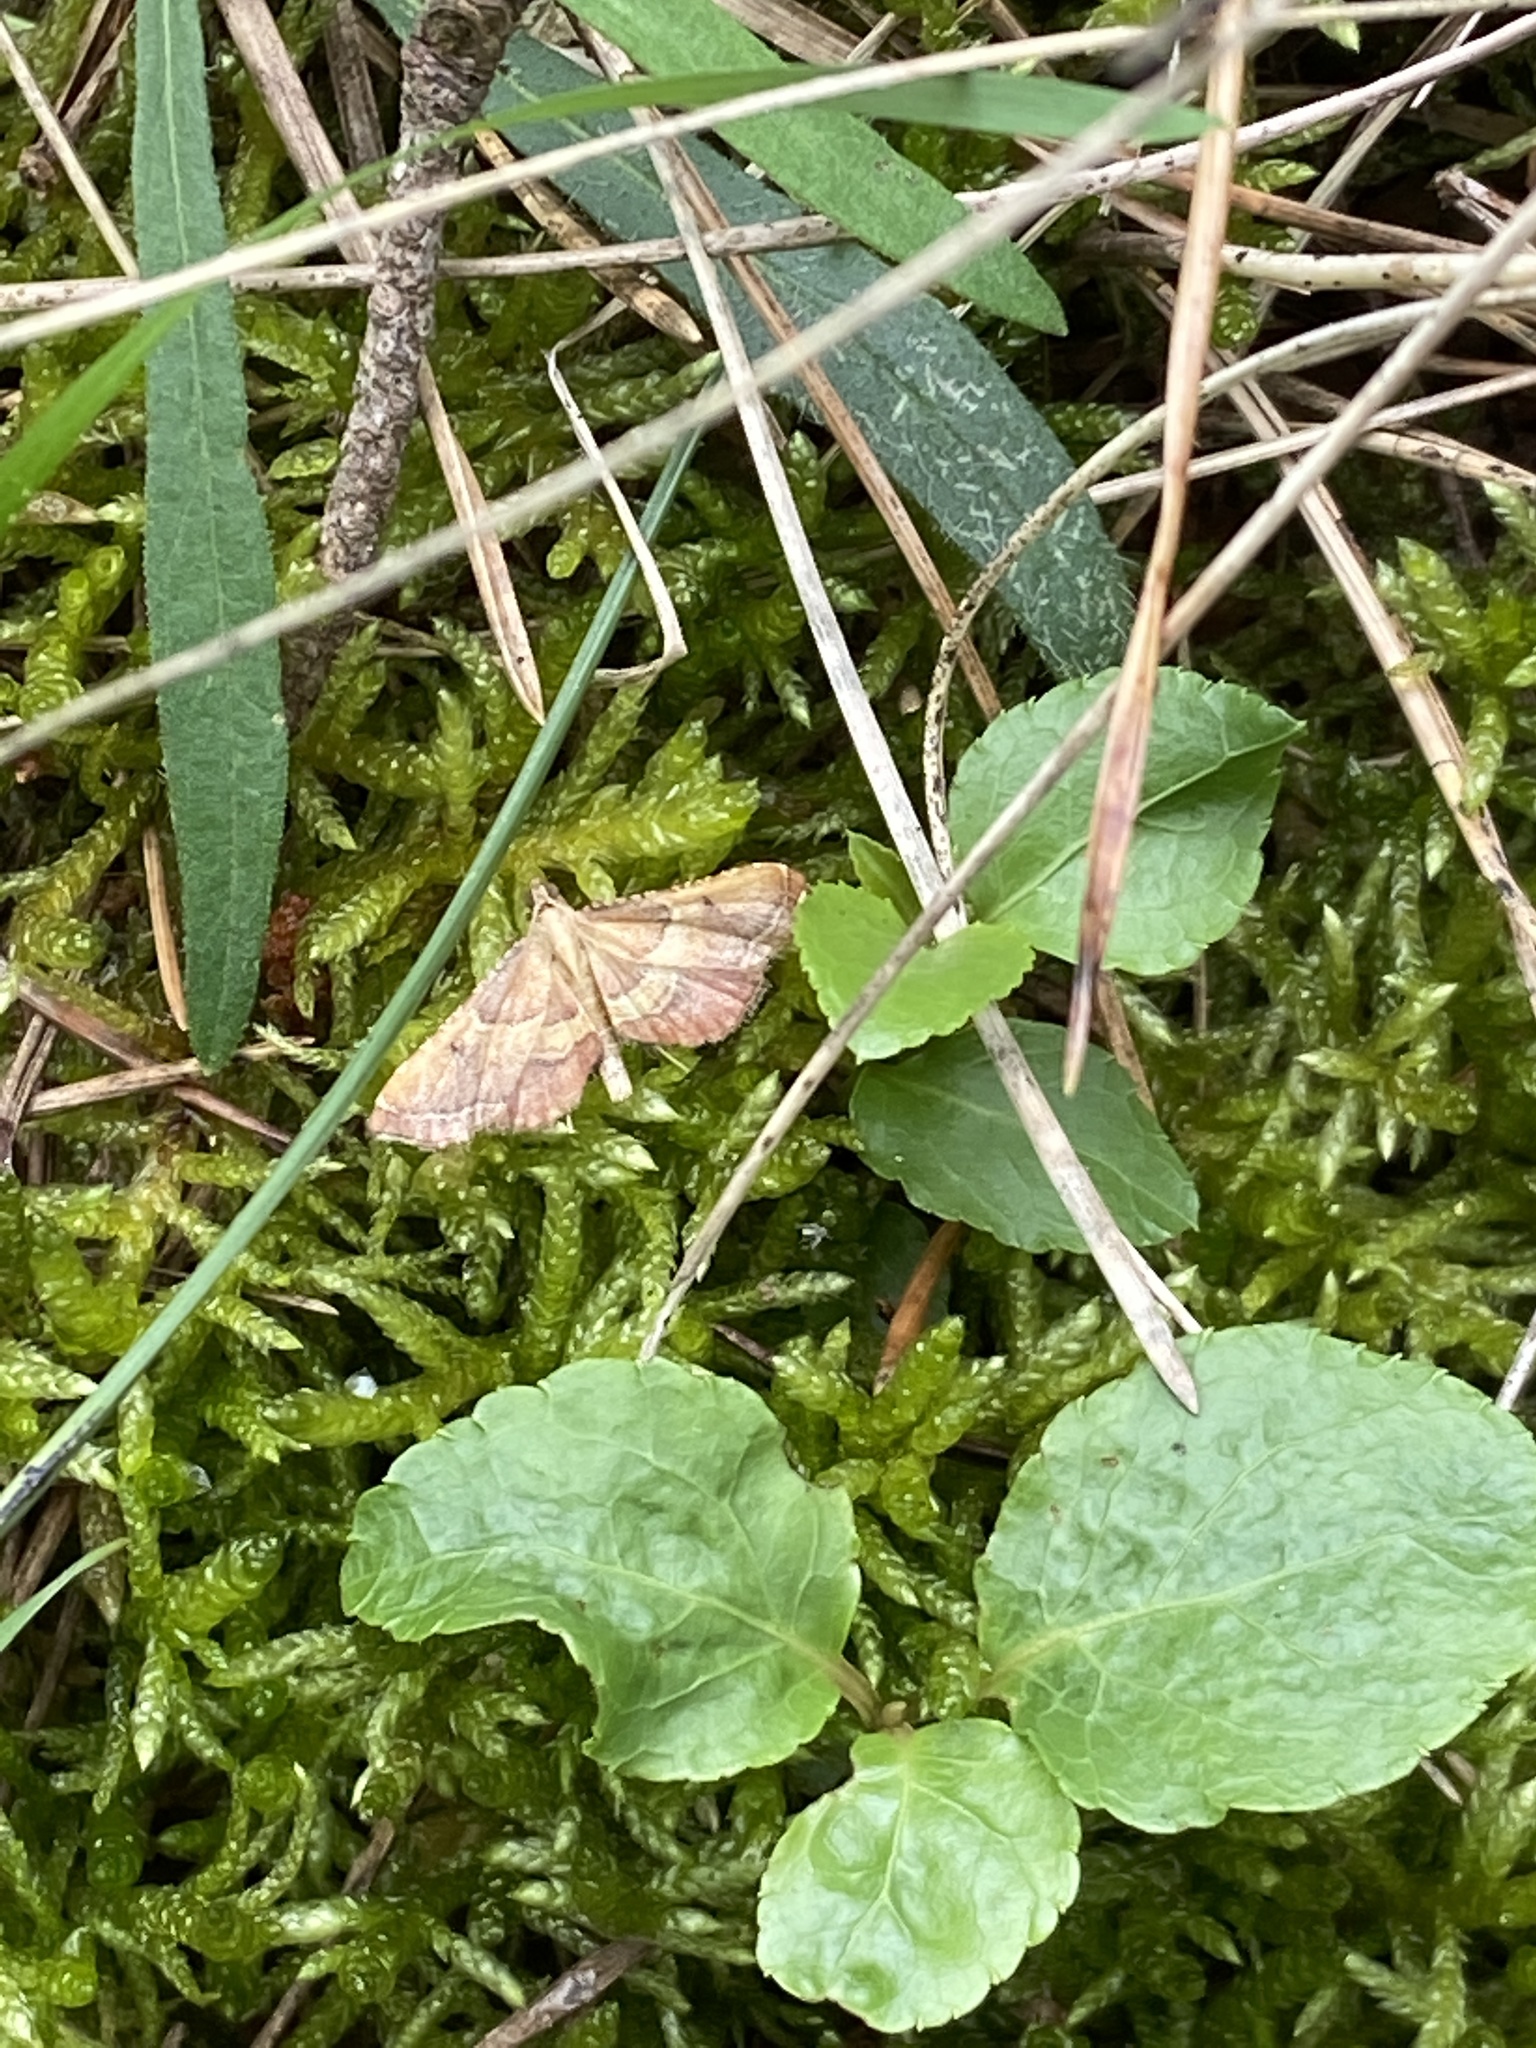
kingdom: Animalia
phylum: Arthropoda
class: Insecta
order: Lepidoptera
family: Pyralidae
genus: Endotricha
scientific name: Endotricha flammealis
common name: Rosy tabby
